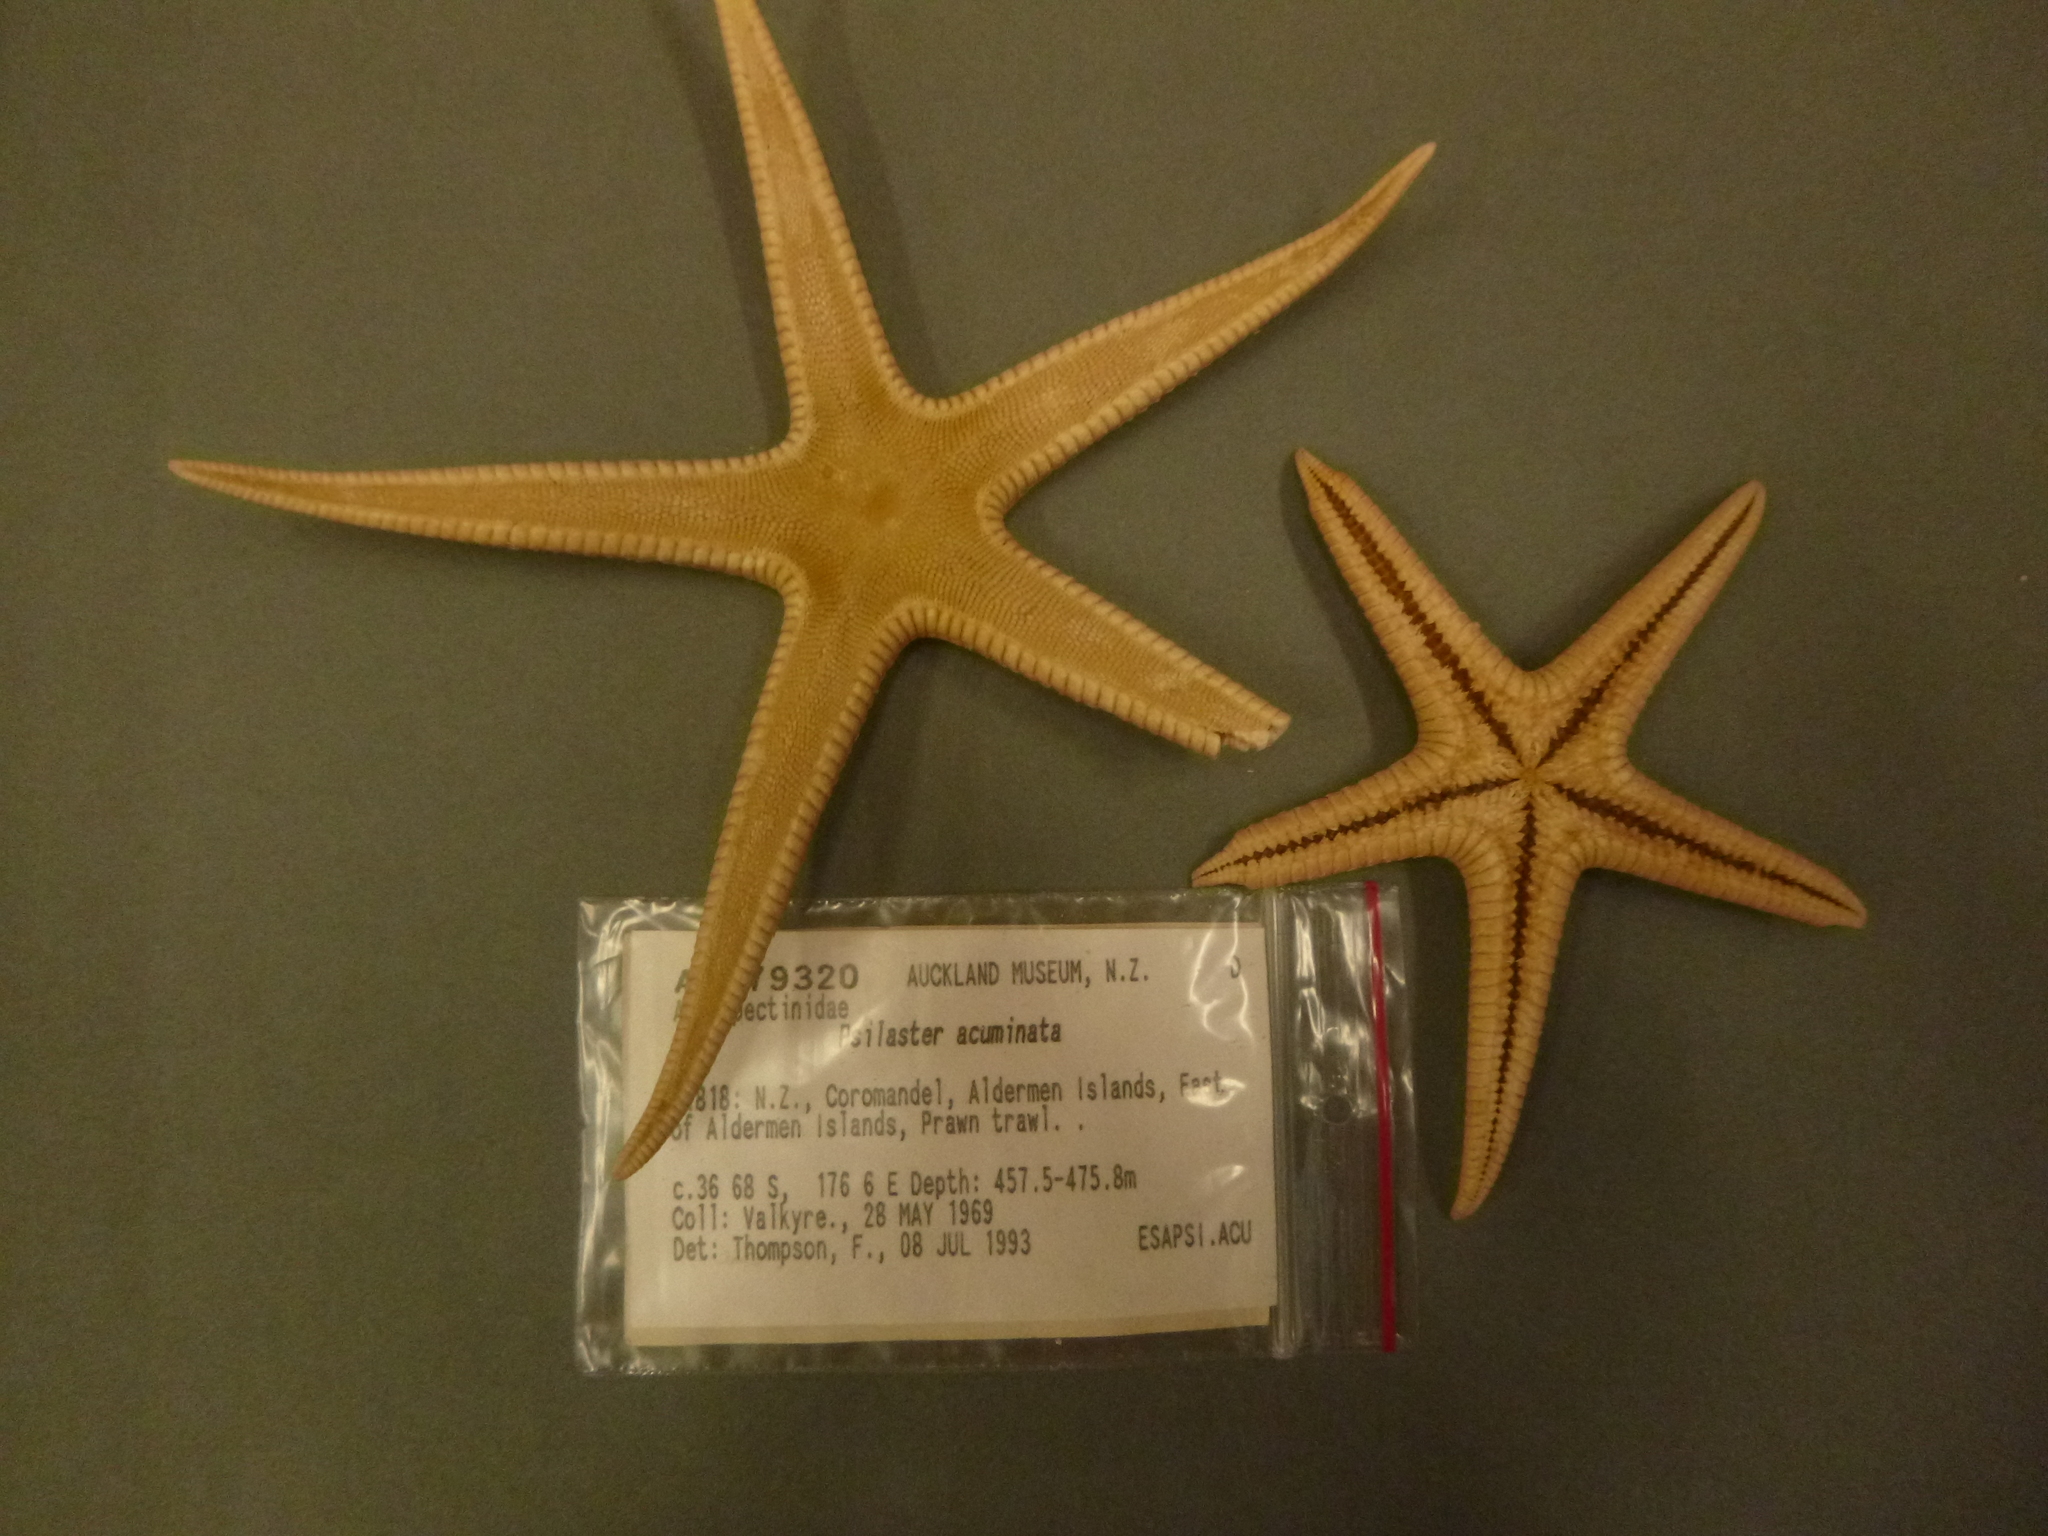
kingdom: Animalia
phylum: Echinodermata
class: Asteroidea
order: Paxillosida
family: Astropectinidae
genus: Psilaster
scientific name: Psilaster acuminatus
